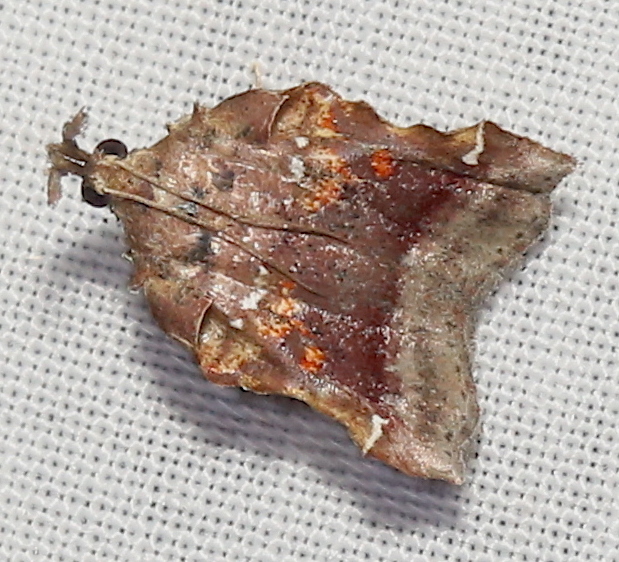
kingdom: Animalia
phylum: Arthropoda
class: Insecta
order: Lepidoptera
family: Pyralidae
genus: Clydonopteron
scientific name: Clydonopteron sacculana
